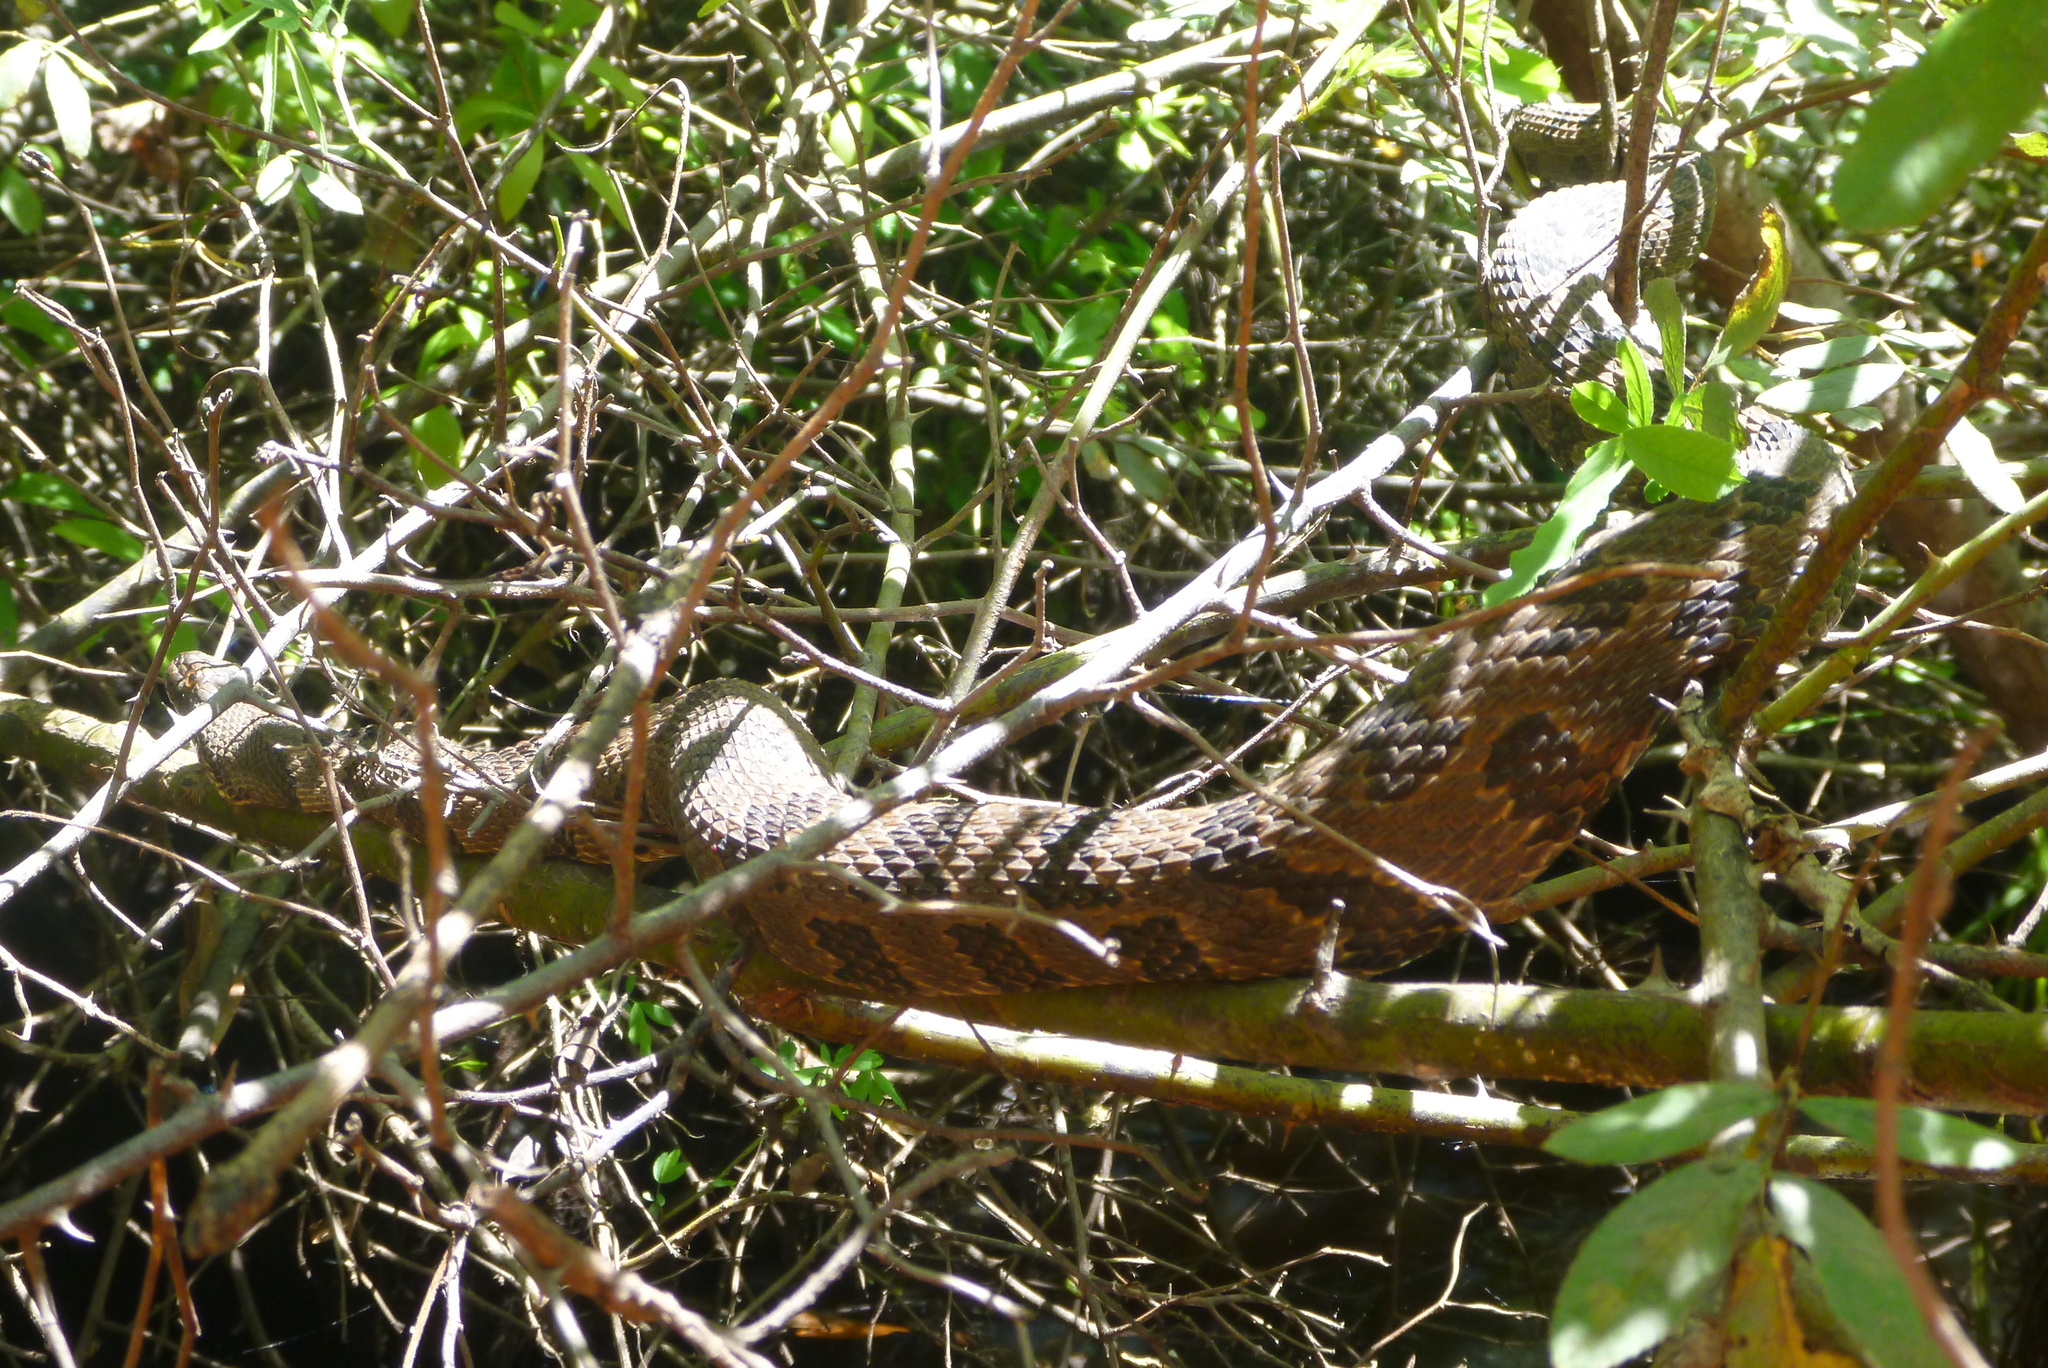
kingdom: Animalia
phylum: Chordata
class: Squamata
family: Colubridae
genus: Nerodia
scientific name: Nerodia taxispilota
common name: Brown water snake
